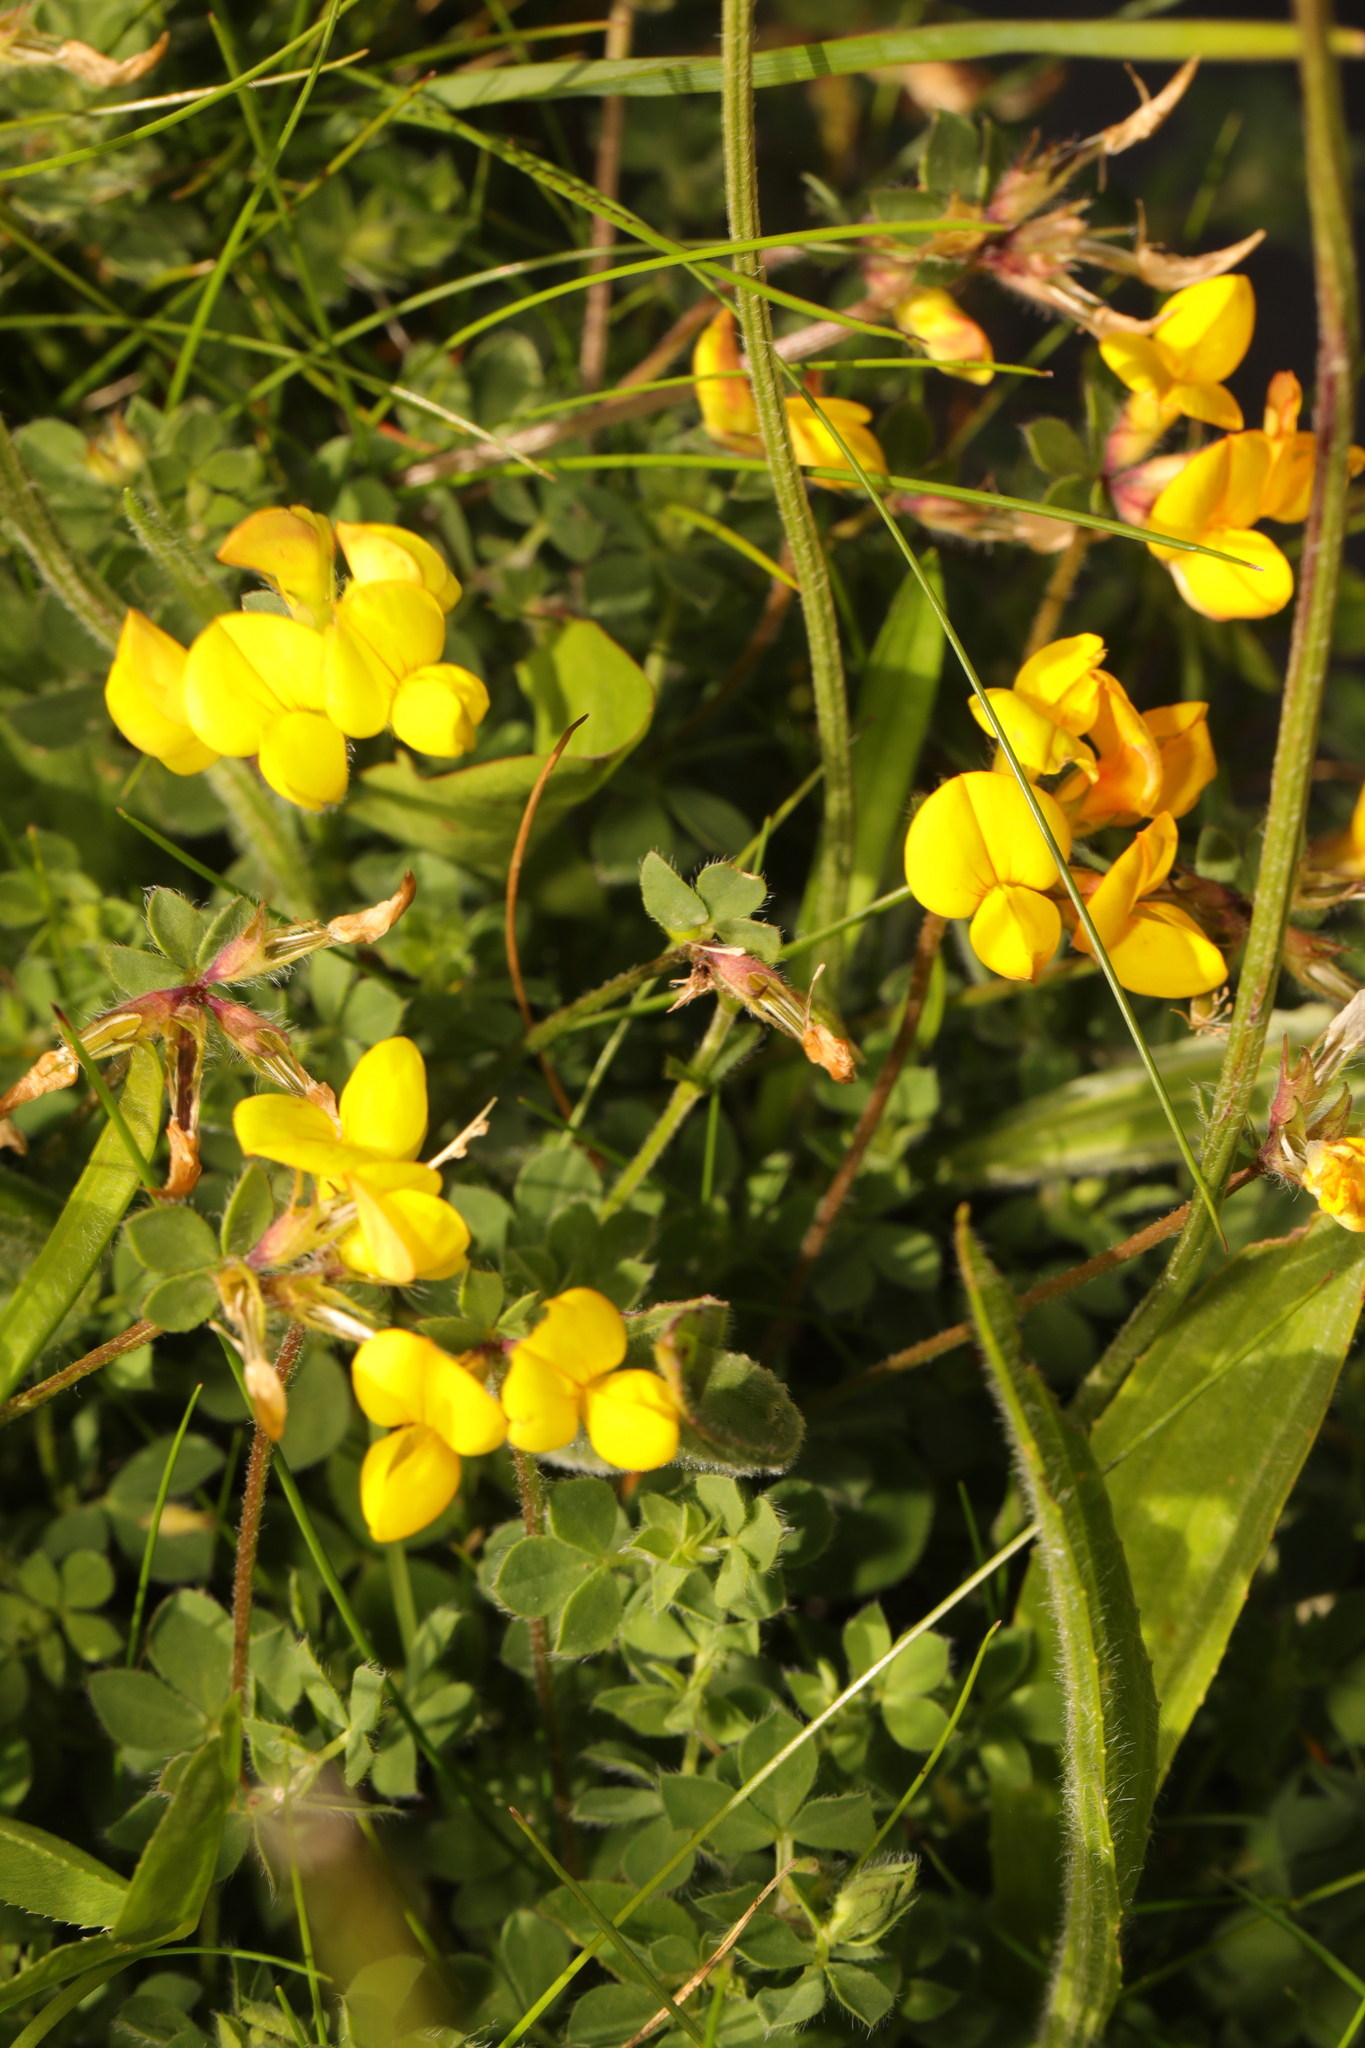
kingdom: Plantae
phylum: Tracheophyta
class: Magnoliopsida
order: Fabales
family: Fabaceae
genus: Lotus
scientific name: Lotus corniculatus
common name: Common bird's-foot-trefoil
